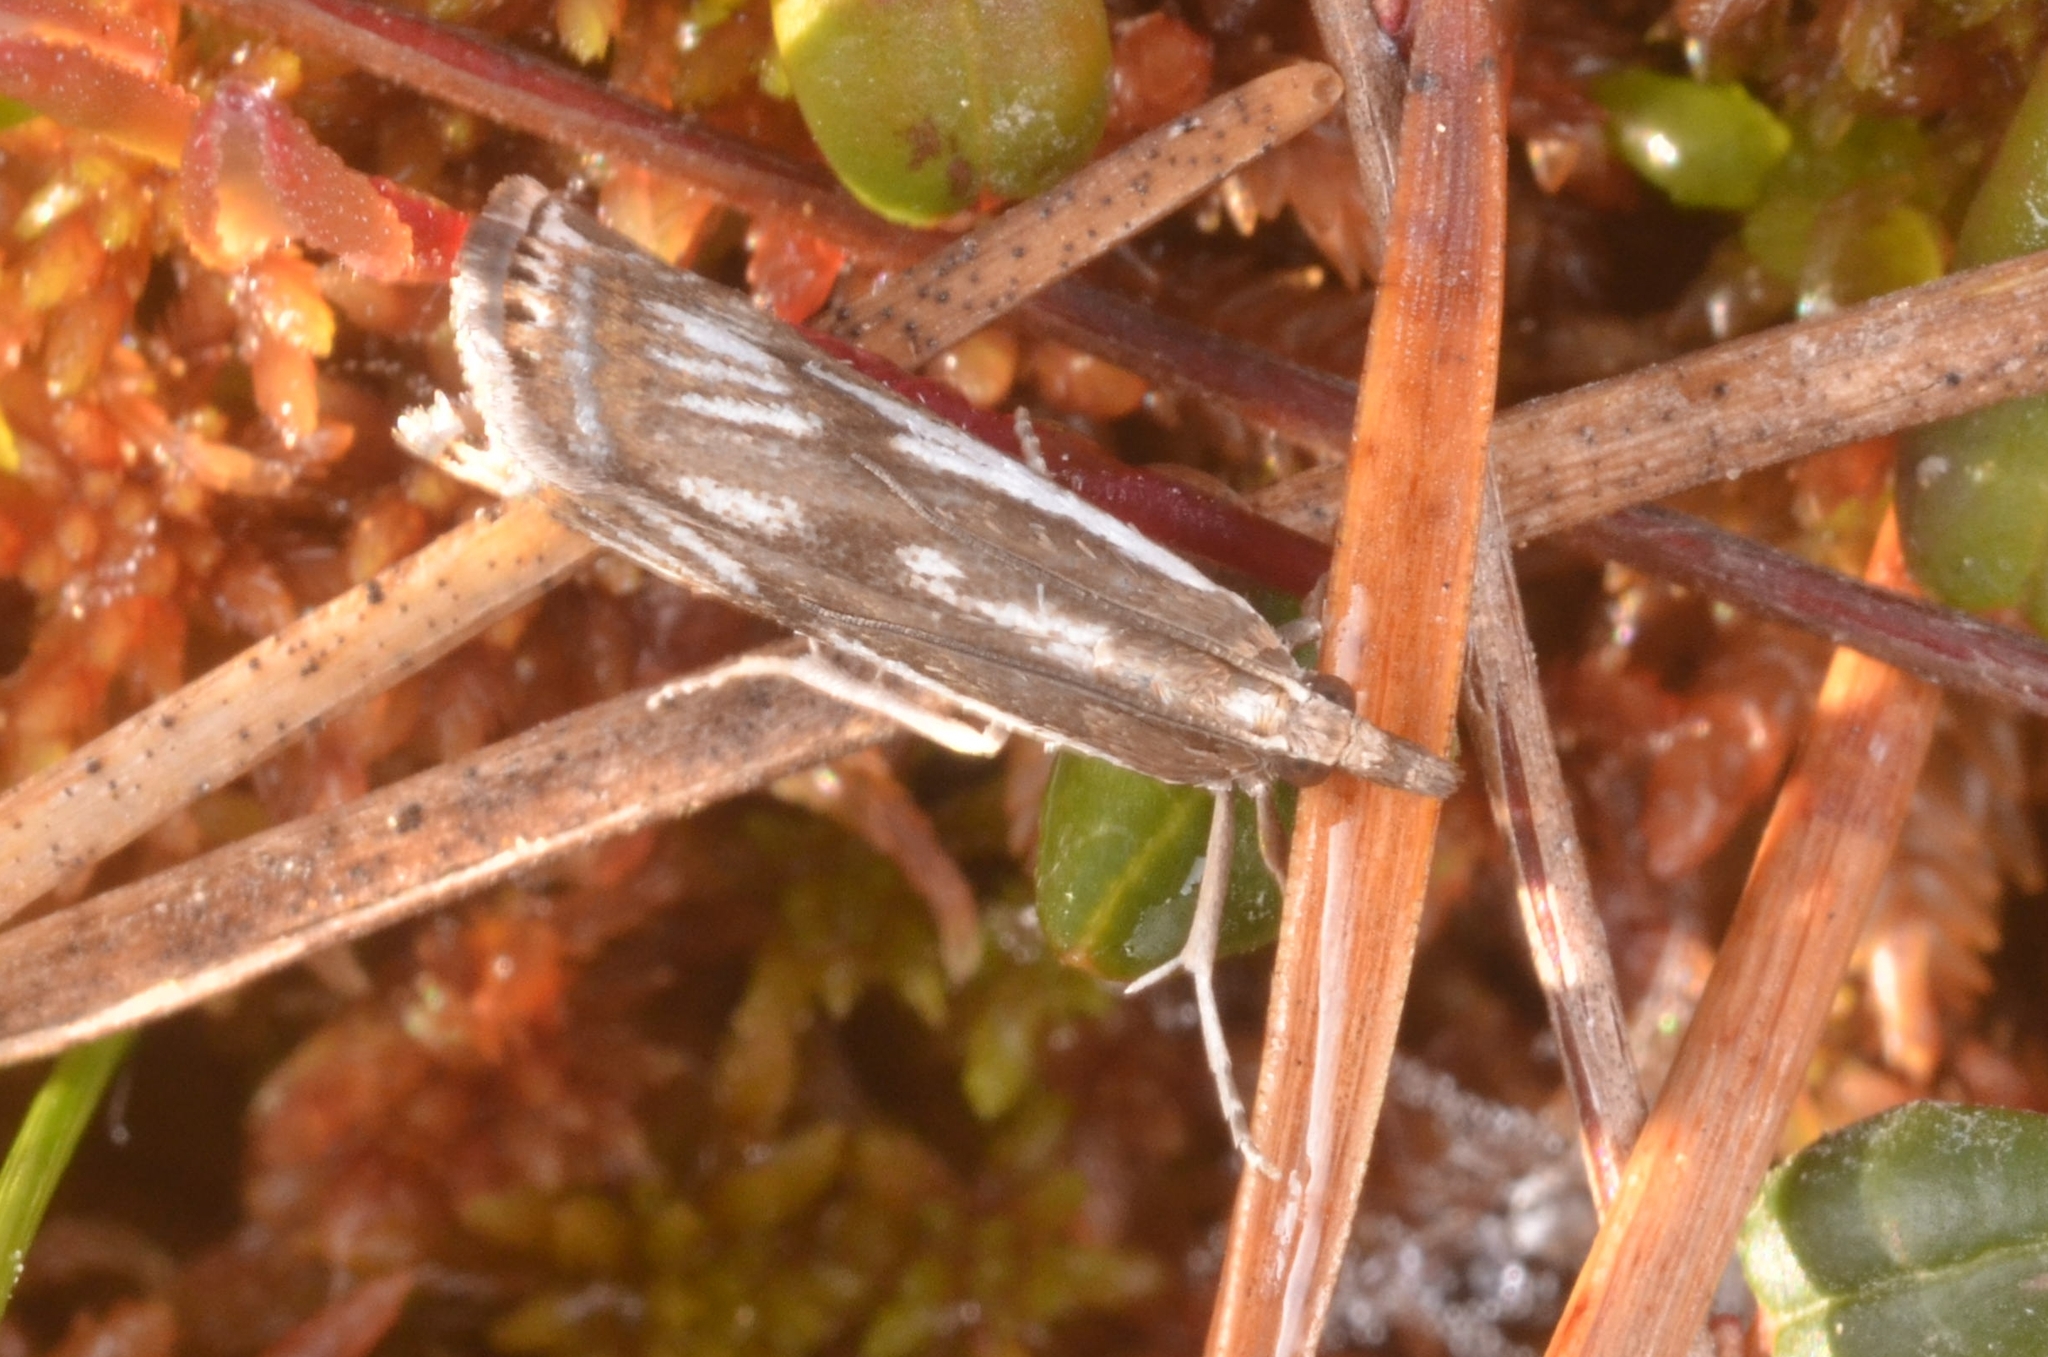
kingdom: Animalia
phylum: Arthropoda
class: Insecta
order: Lepidoptera
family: Crambidae
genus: Crambus
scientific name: Crambus alienellus
